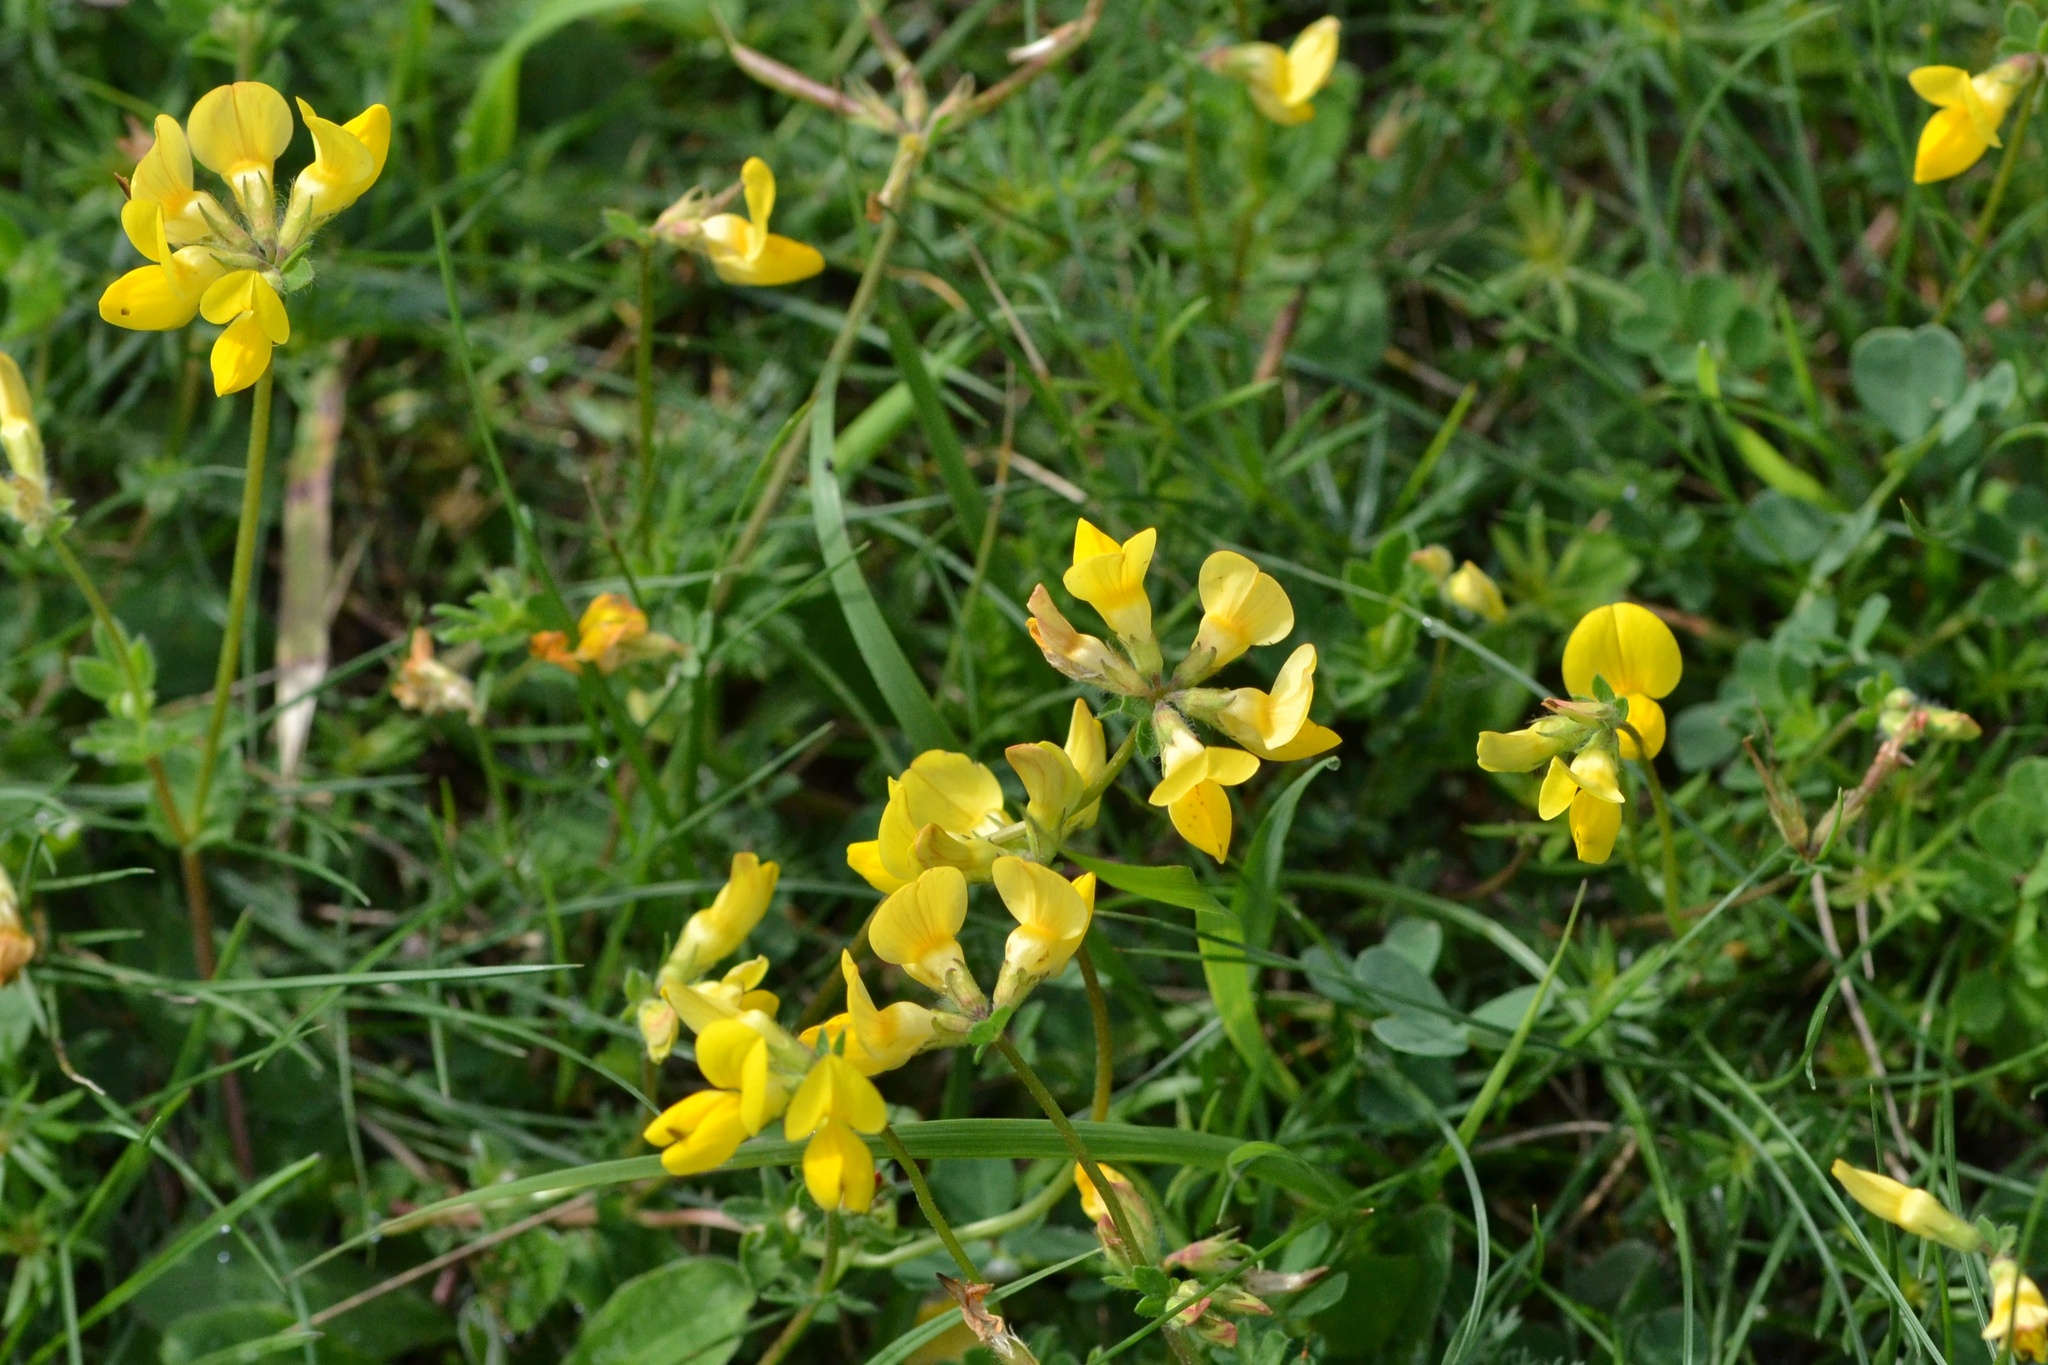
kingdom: Plantae
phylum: Tracheophyta
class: Magnoliopsida
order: Fabales
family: Fabaceae
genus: Lotus
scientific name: Lotus corniculatus
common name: Common bird's-foot-trefoil
